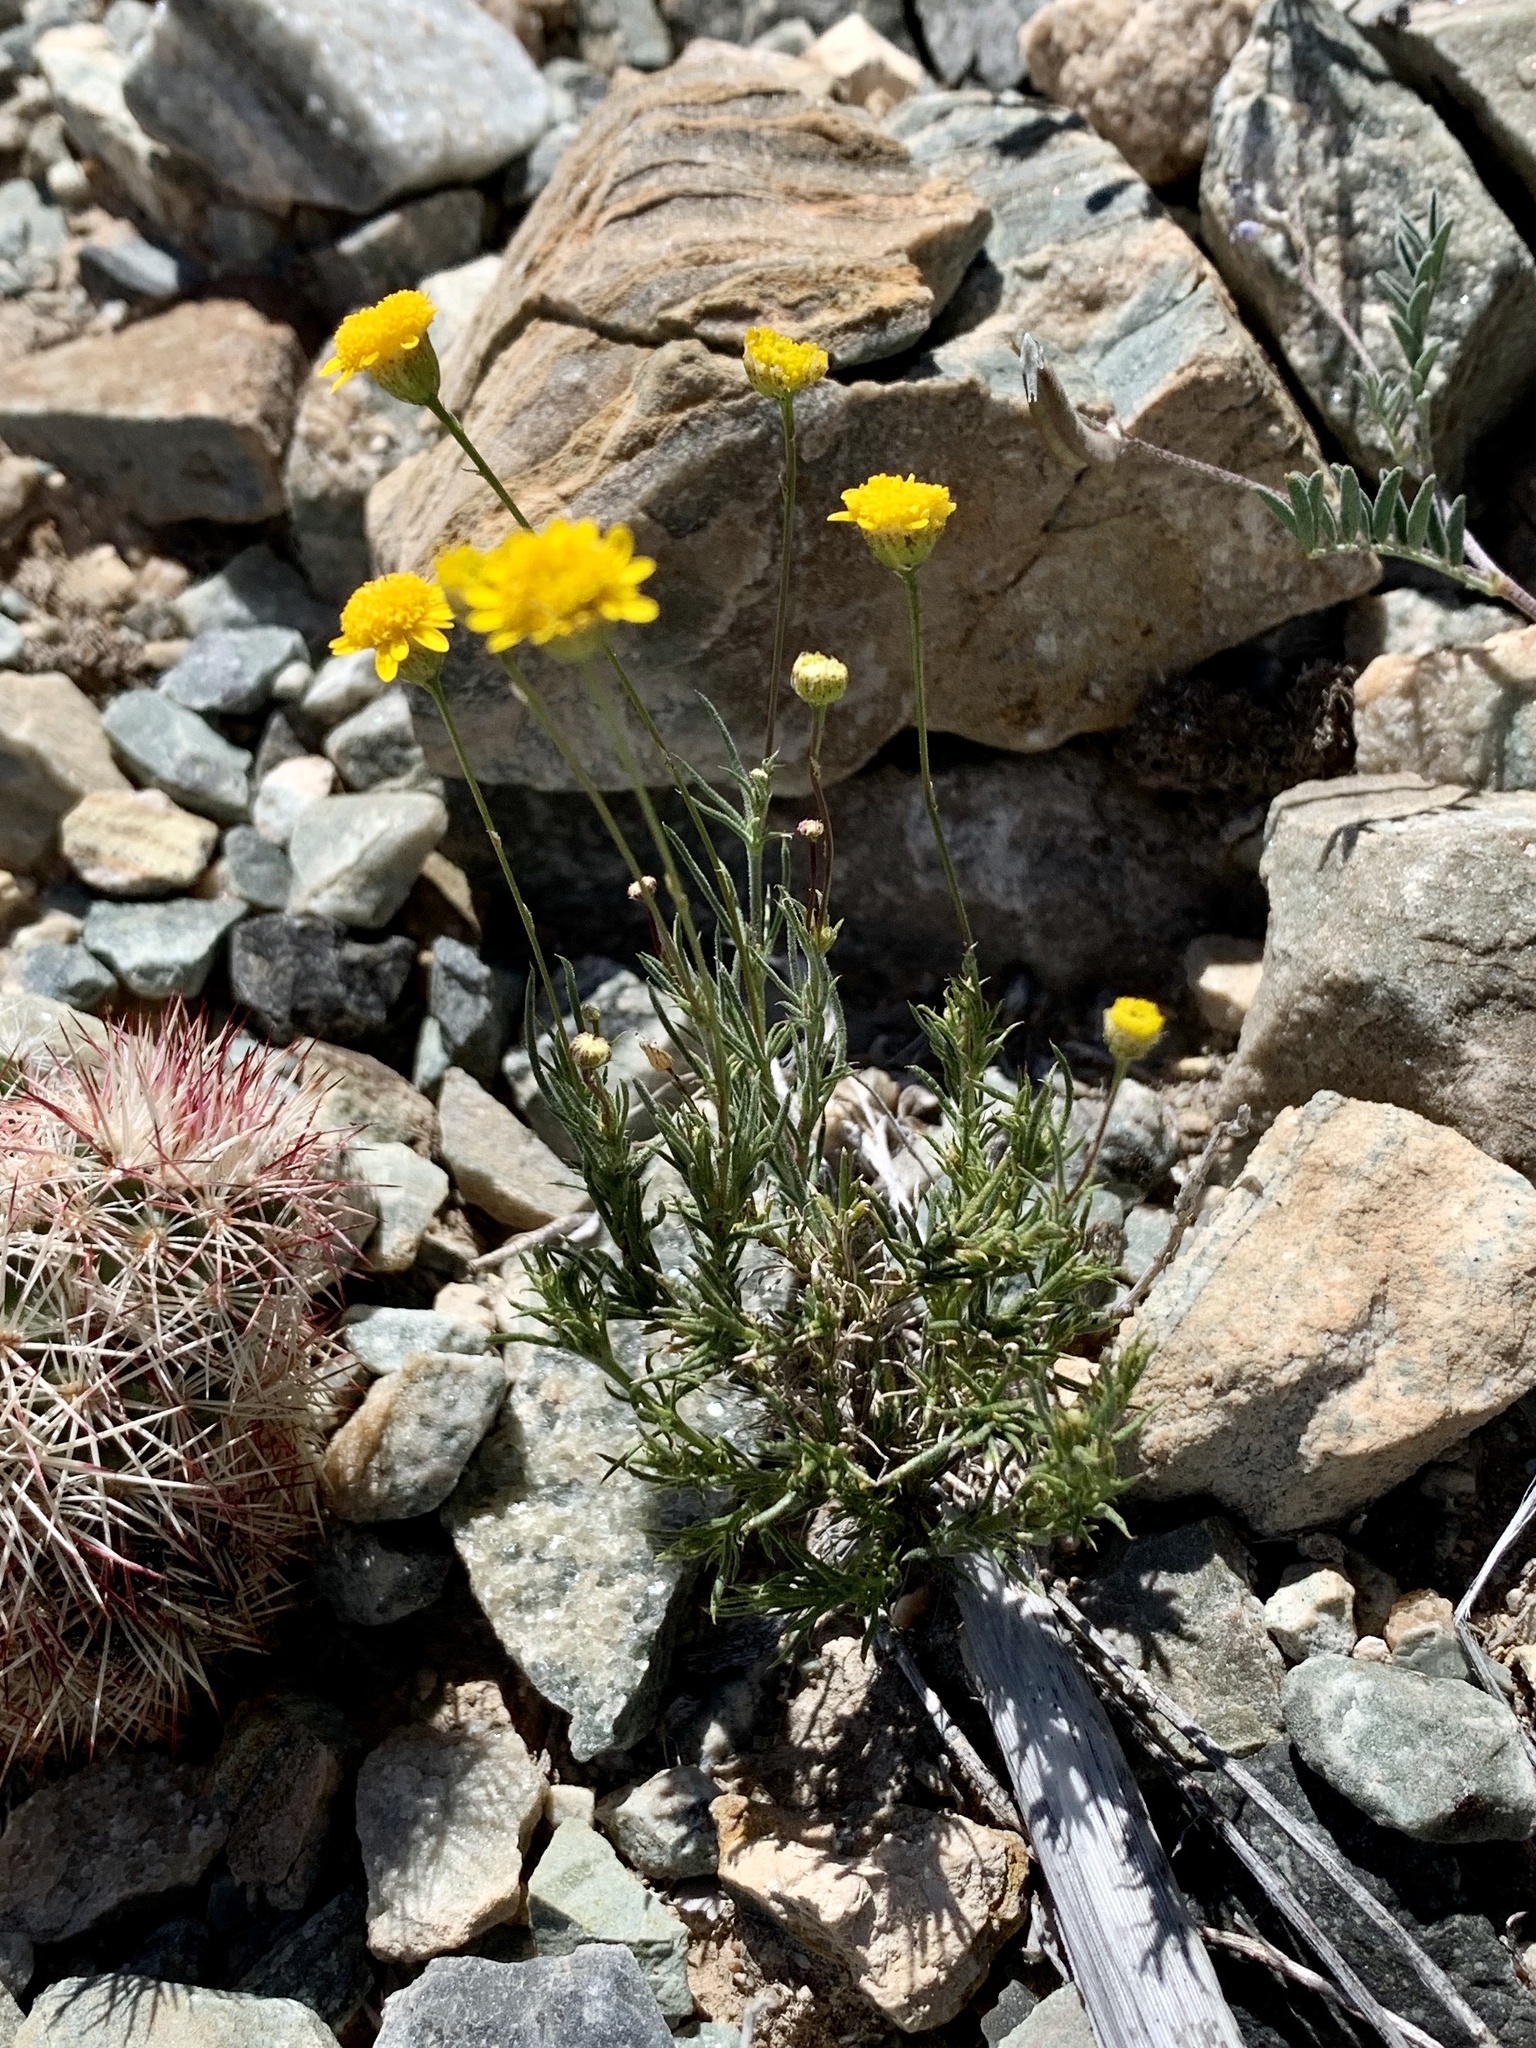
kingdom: Plantae
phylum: Tracheophyta
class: Magnoliopsida
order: Asterales
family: Asteraceae
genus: Thymophylla
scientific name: Thymophylla pentachaeta
